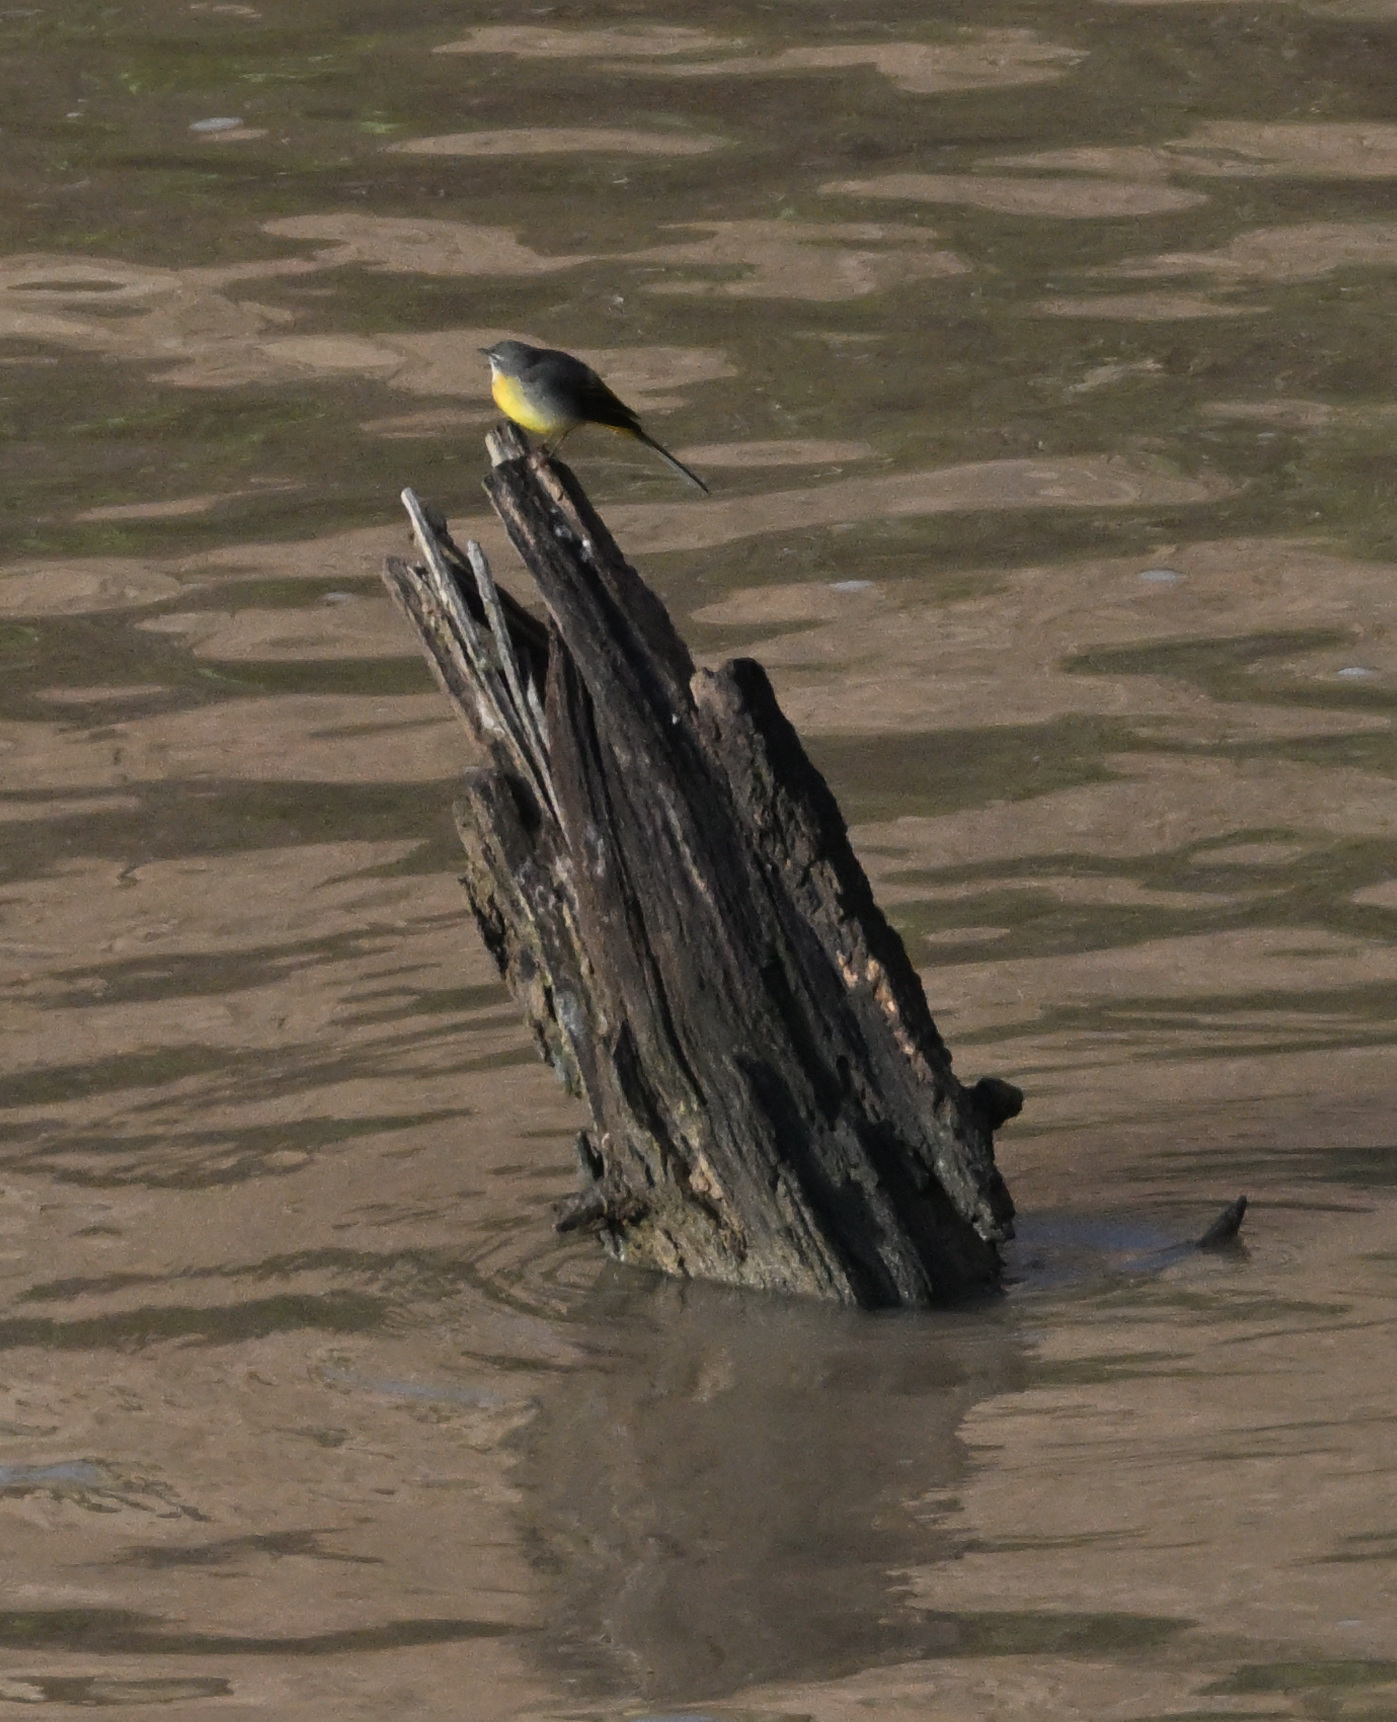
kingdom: Animalia
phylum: Chordata
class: Aves
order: Passeriformes
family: Motacillidae
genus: Motacilla
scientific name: Motacilla cinerea
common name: Grey wagtail
